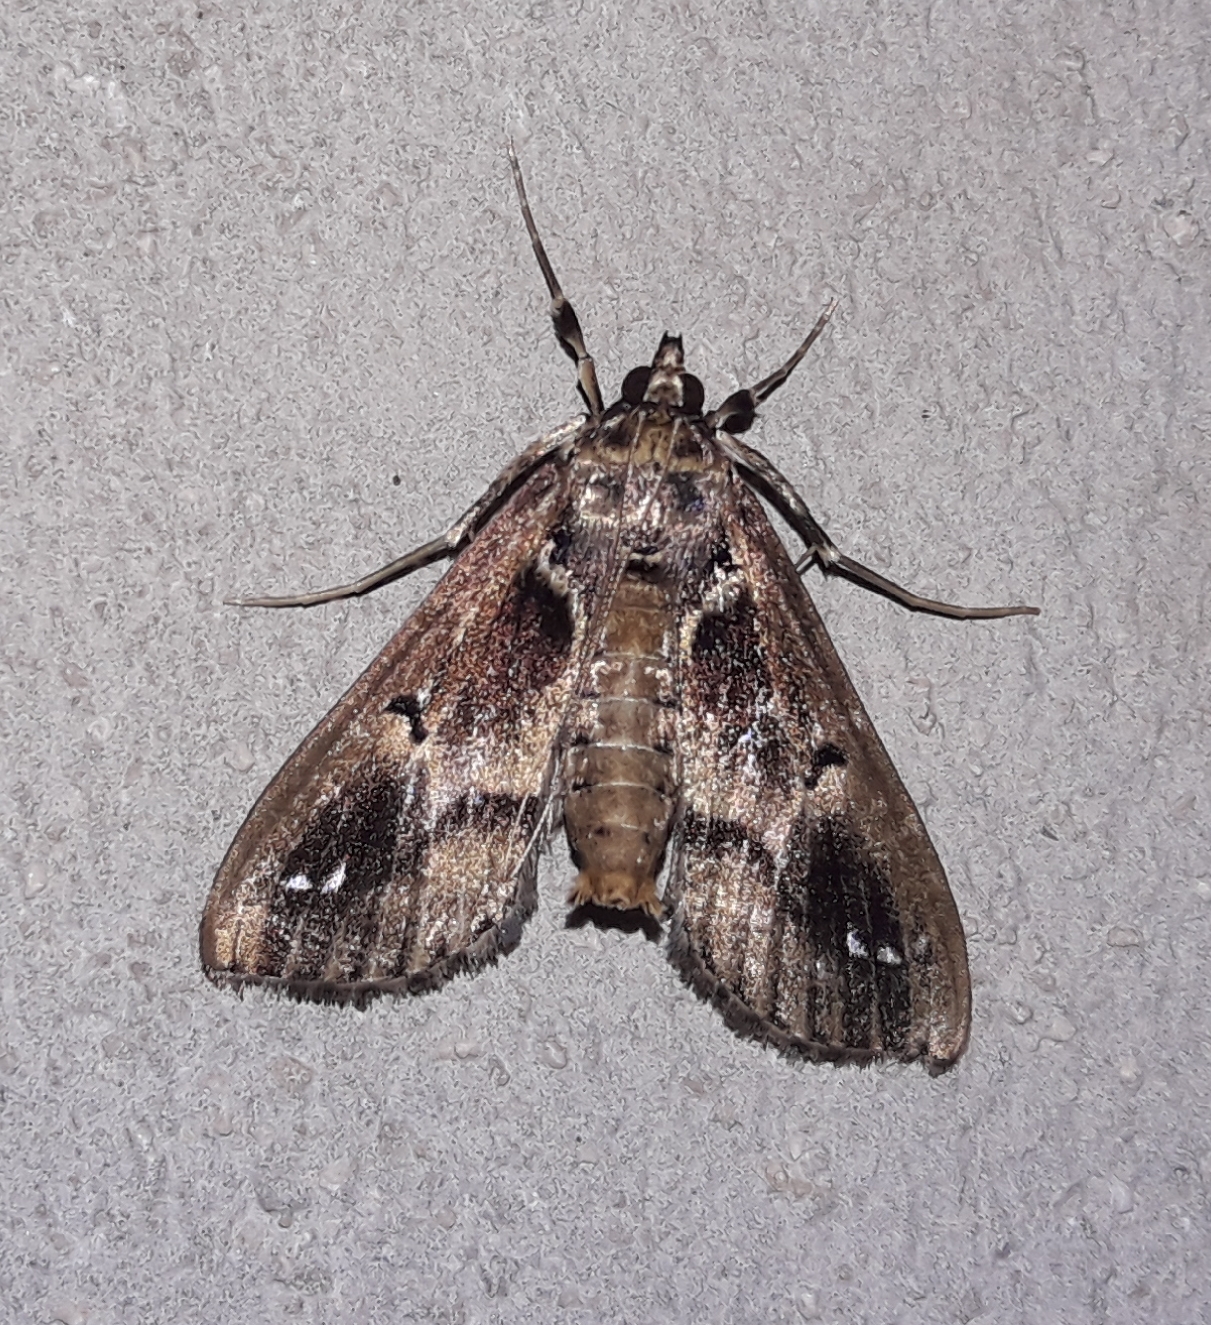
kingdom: Animalia
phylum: Arthropoda
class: Insecta
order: Lepidoptera
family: Crambidae
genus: Diaphania
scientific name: Diaphania costaricalis
